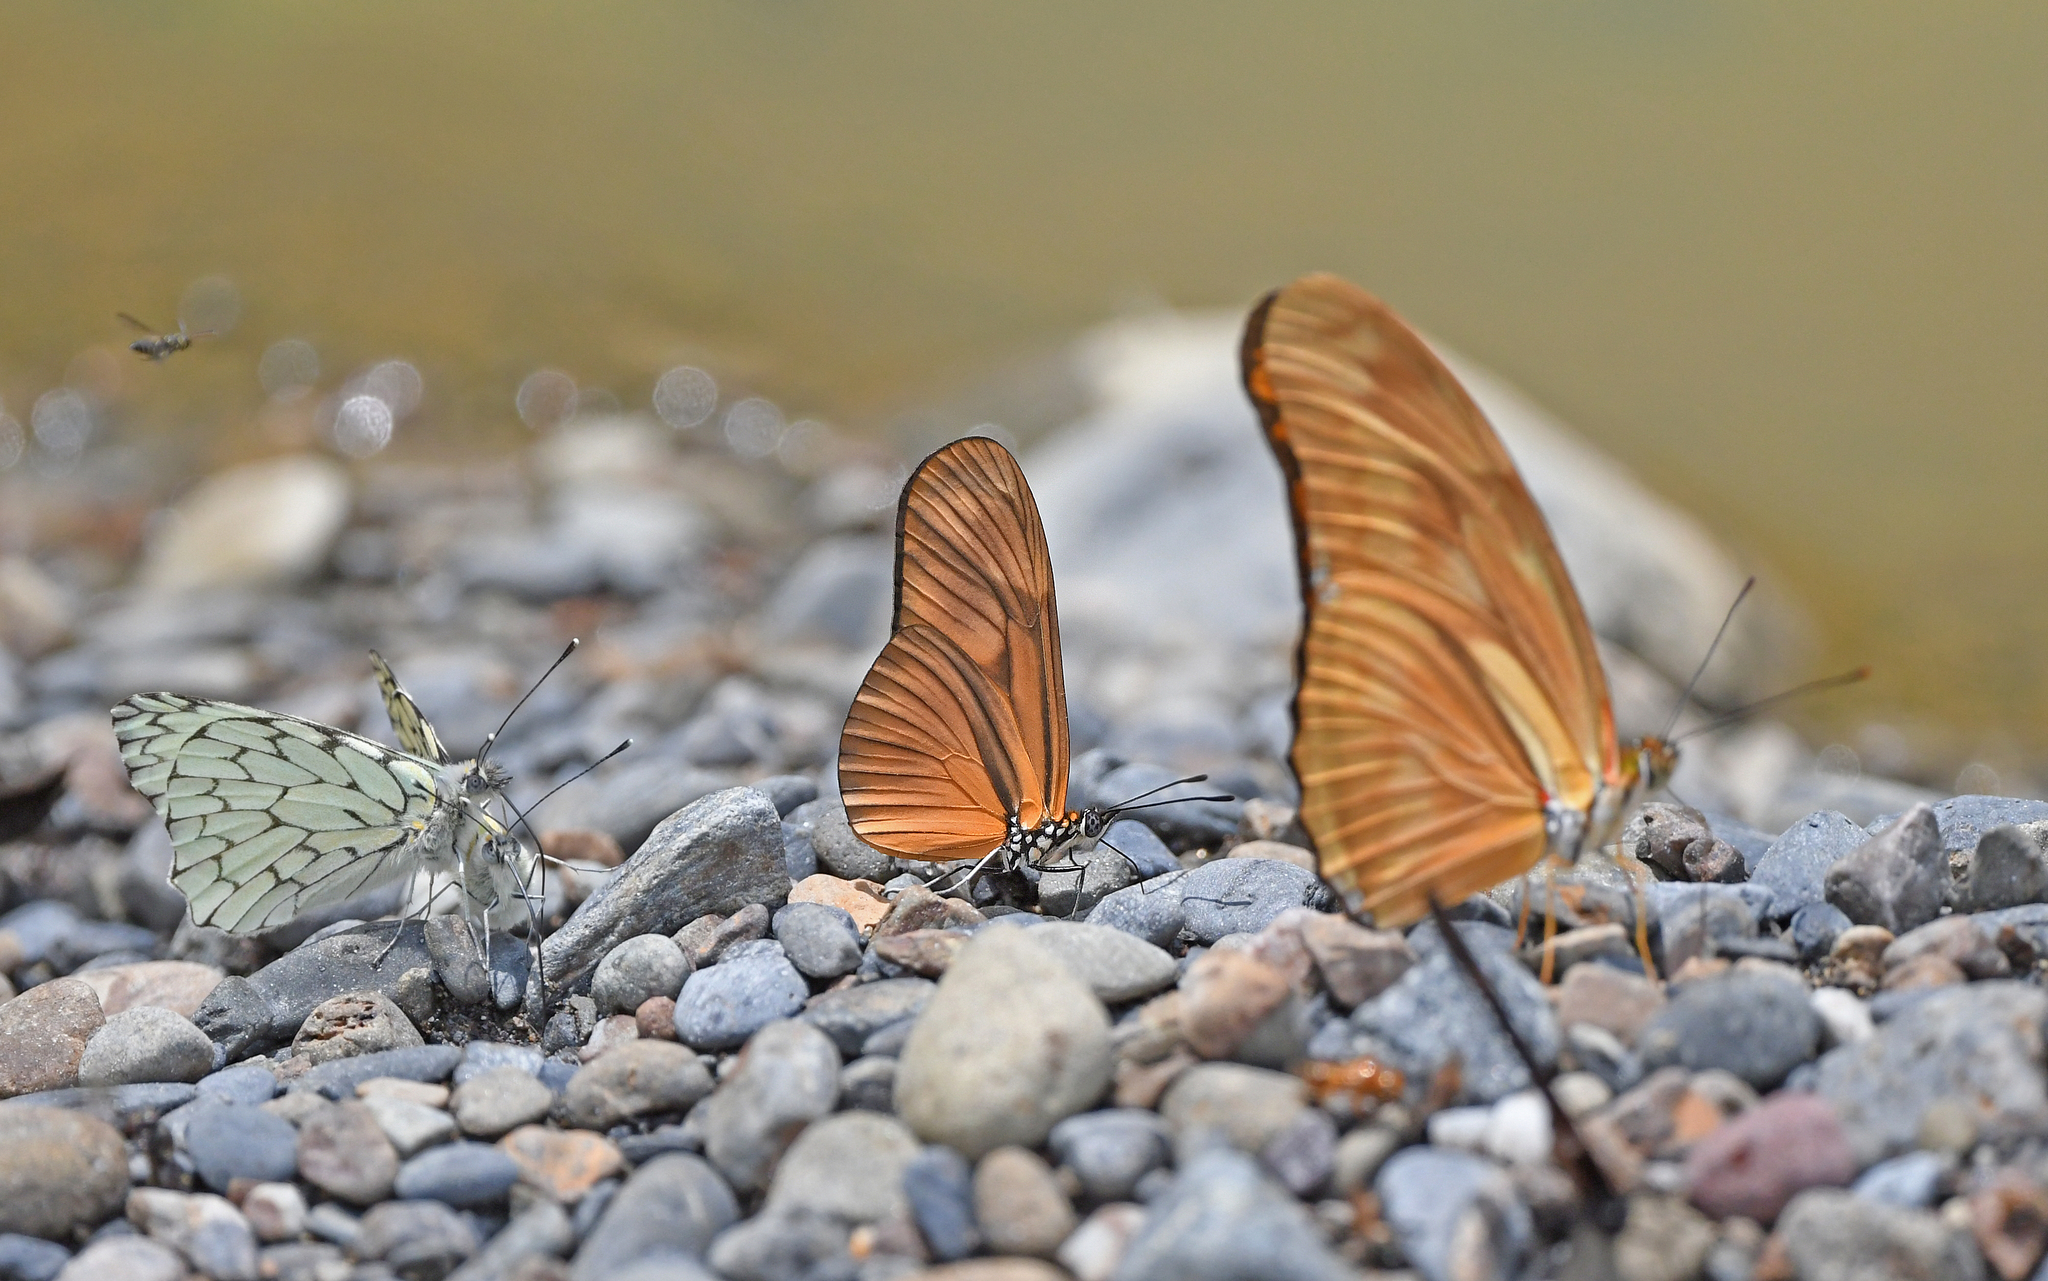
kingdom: Animalia
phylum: Arthropoda
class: Insecta
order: Lepidoptera
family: Nymphalidae
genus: Heliconius
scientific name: Heliconius aliphera
